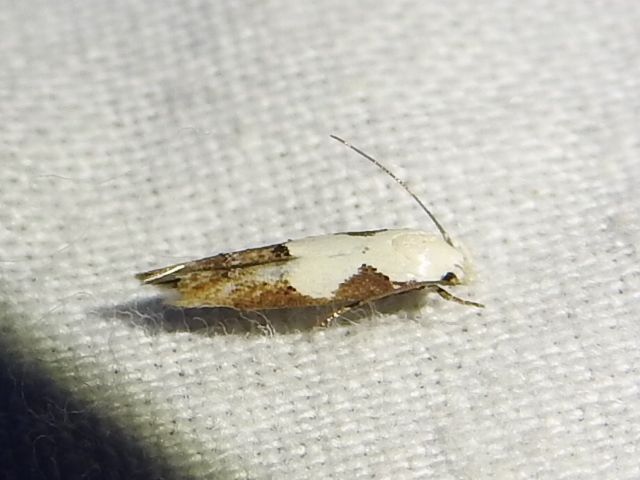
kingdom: Animalia
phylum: Arthropoda
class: Insecta
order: Lepidoptera
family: Momphidae
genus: Mompha
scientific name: Mompha circumscriptella
